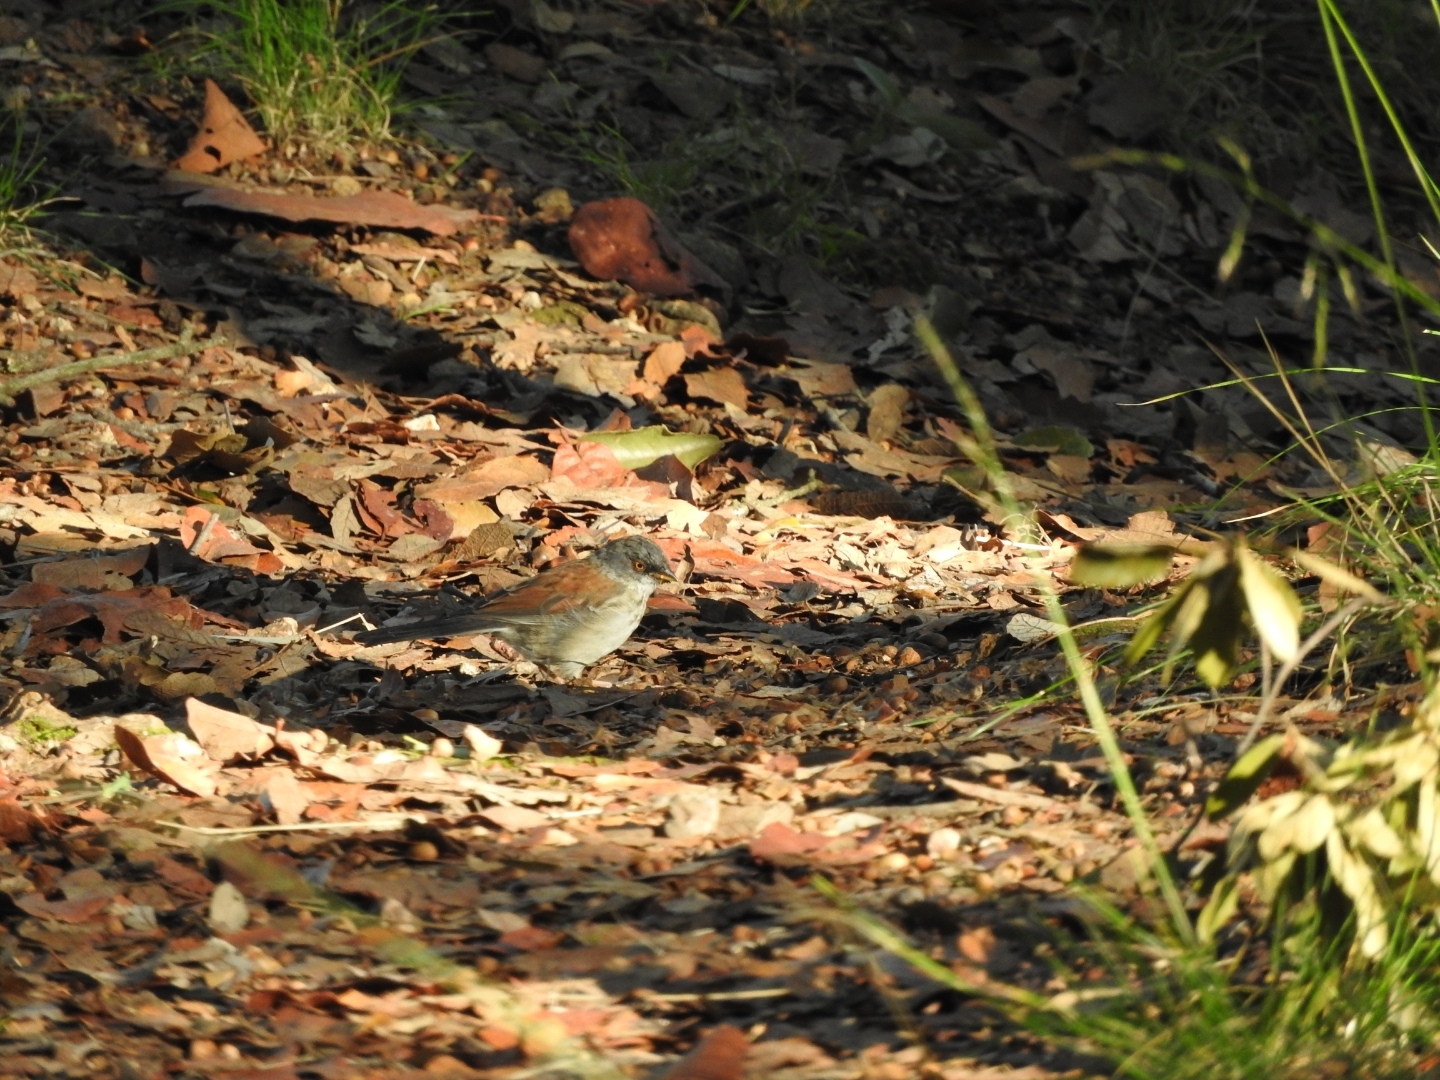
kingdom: Animalia
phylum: Chordata
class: Aves
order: Passeriformes
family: Passerellidae
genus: Junco
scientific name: Junco phaeonotus
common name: Yellow-eyed junco
